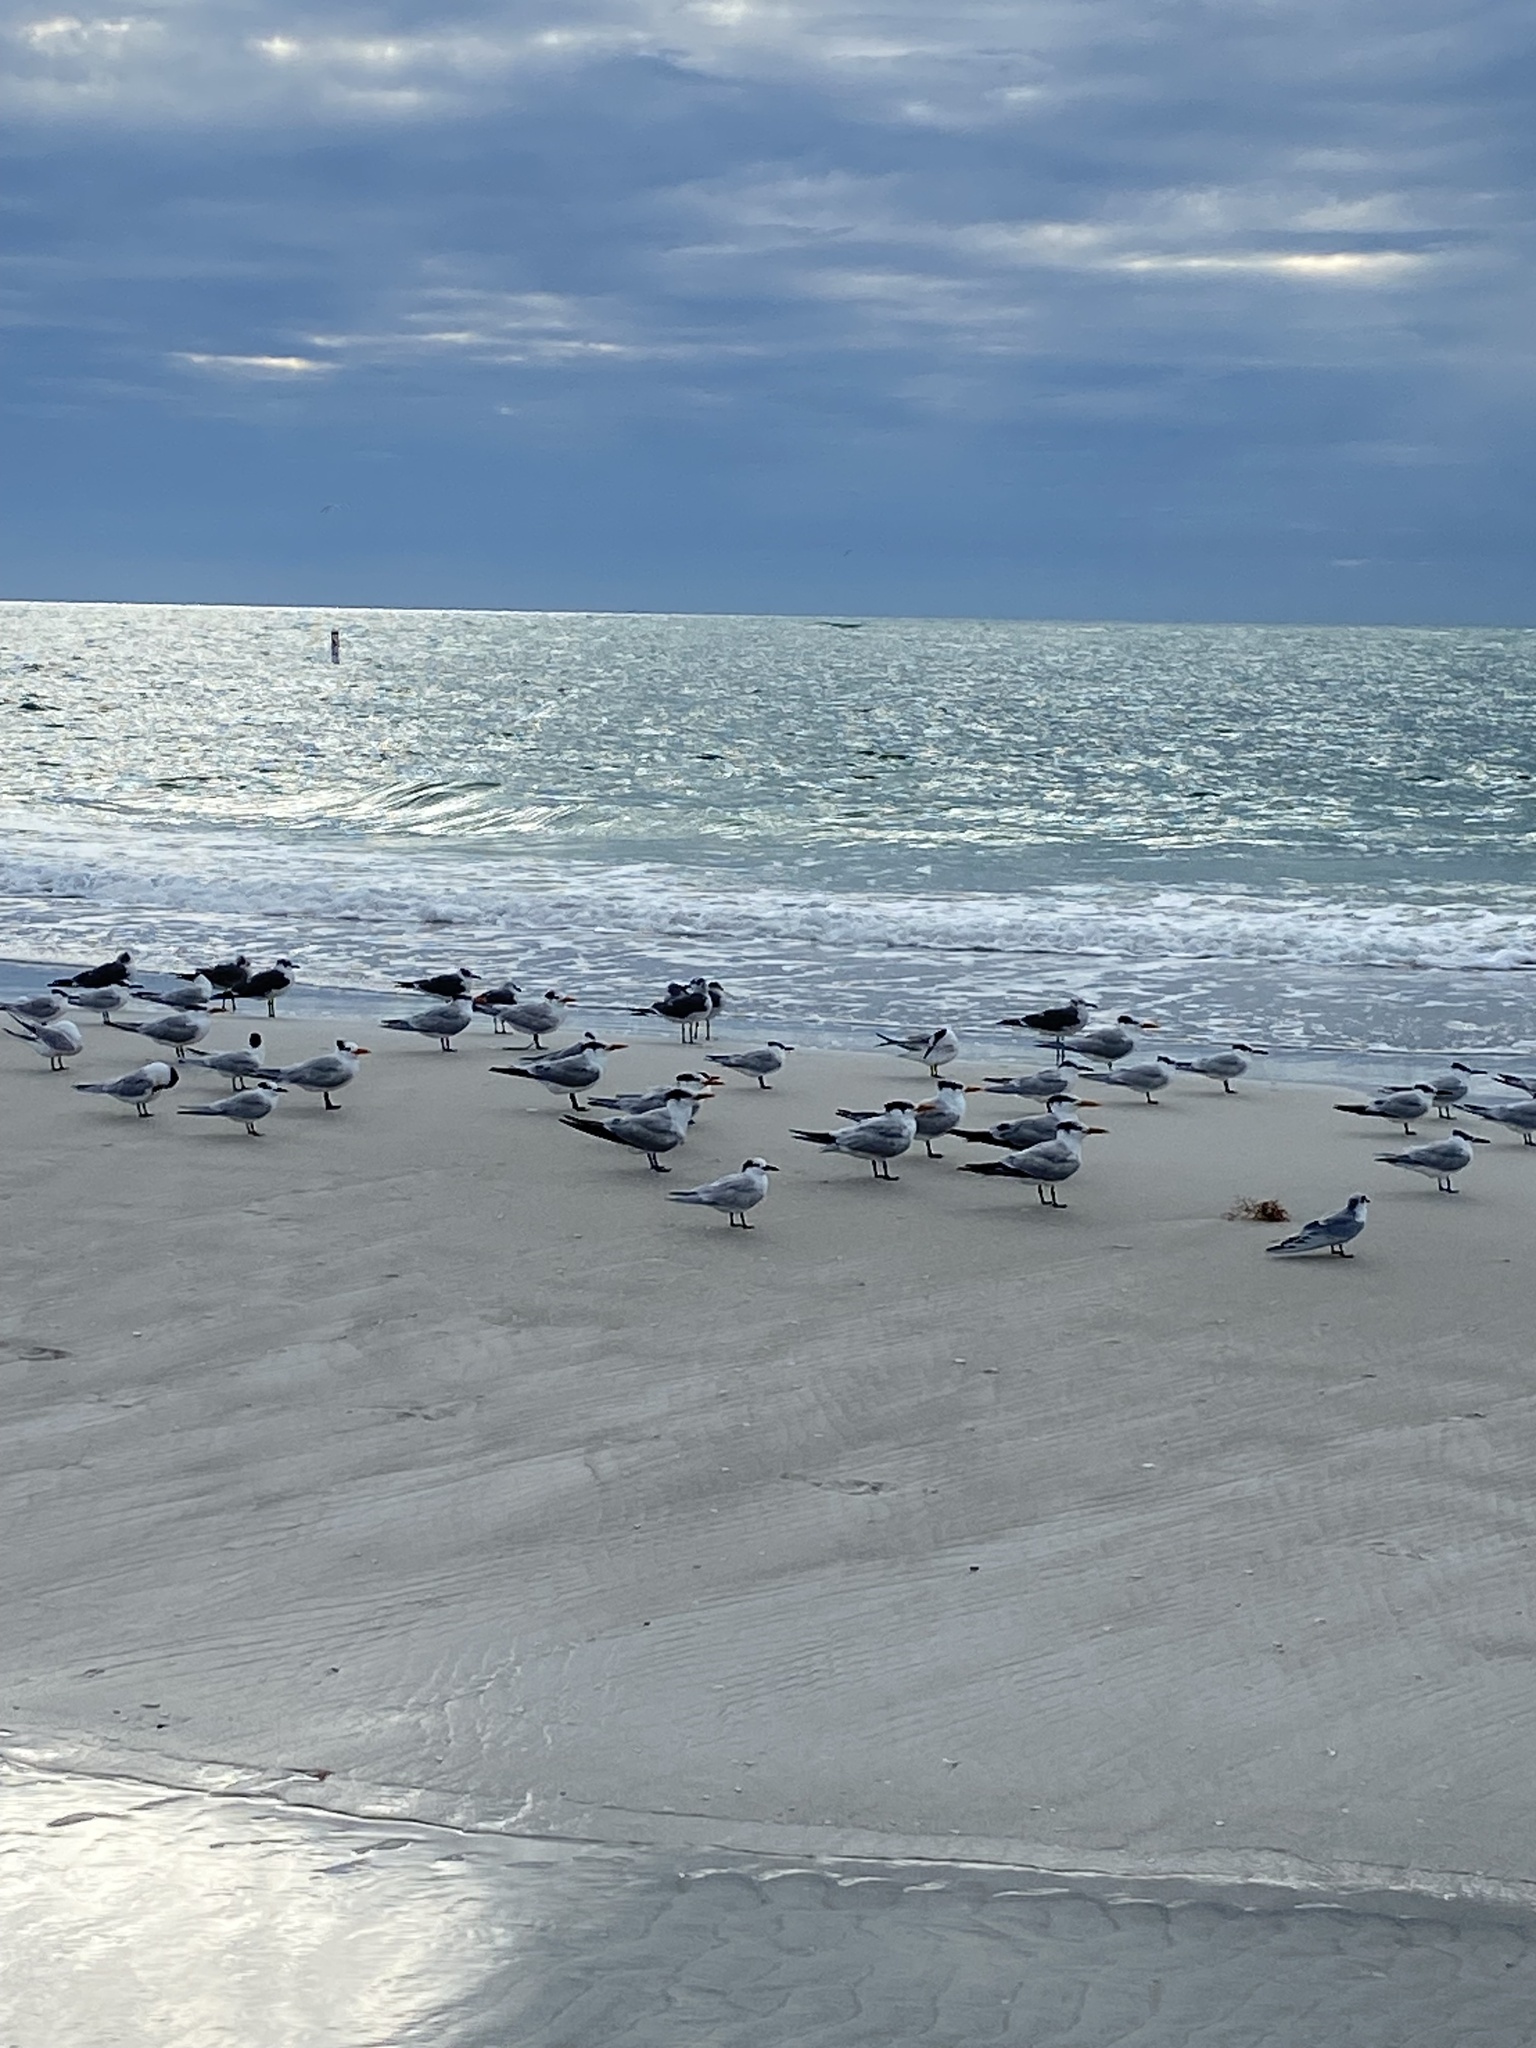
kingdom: Animalia
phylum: Chordata
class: Aves
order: Charadriiformes
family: Laridae
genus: Thalasseus
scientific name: Thalasseus maximus
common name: Royal tern
